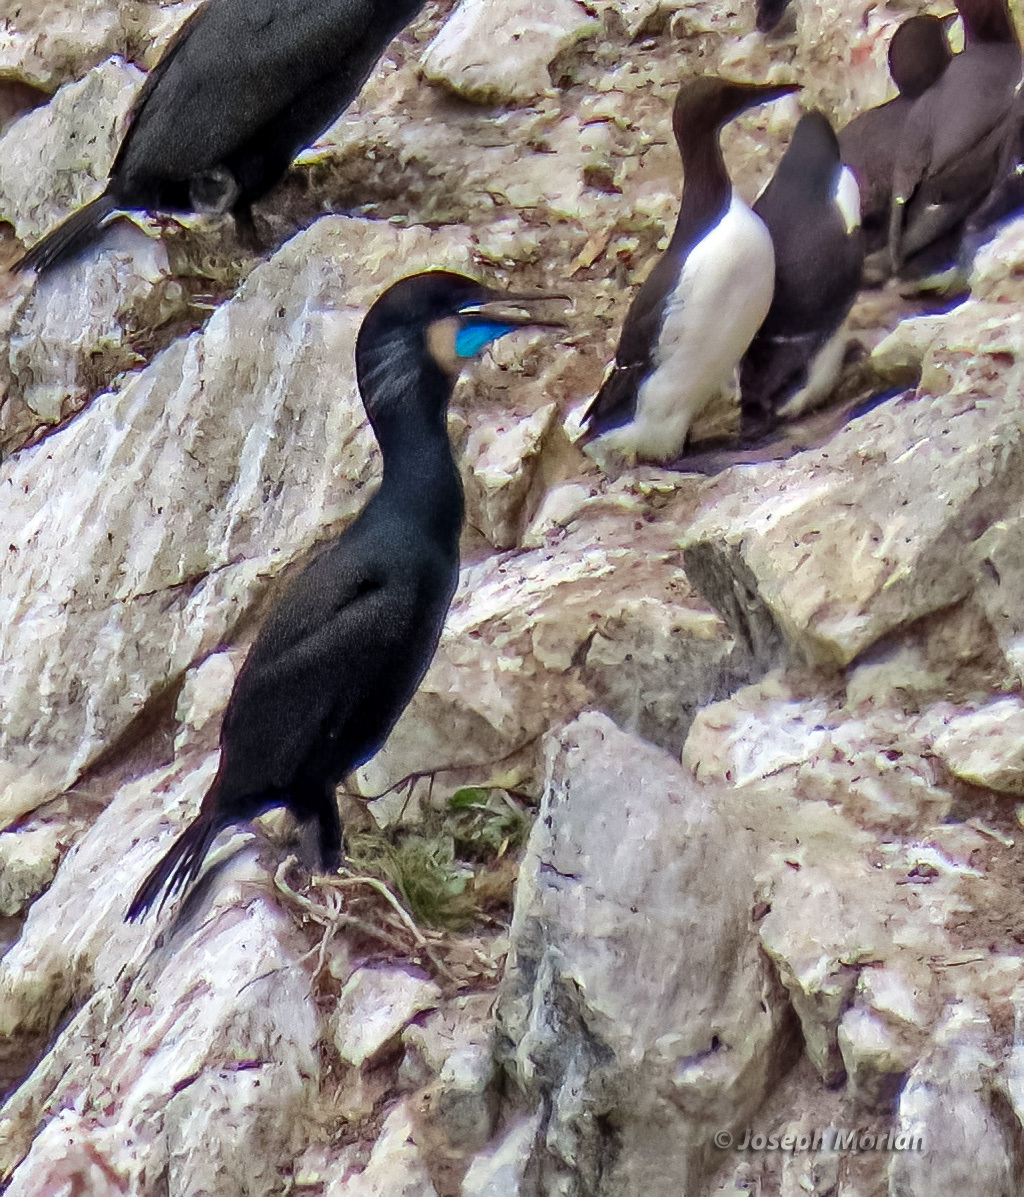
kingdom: Animalia
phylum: Chordata
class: Aves
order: Suliformes
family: Phalacrocoracidae
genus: Urile
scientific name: Urile penicillatus
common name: Brandt's cormorant
